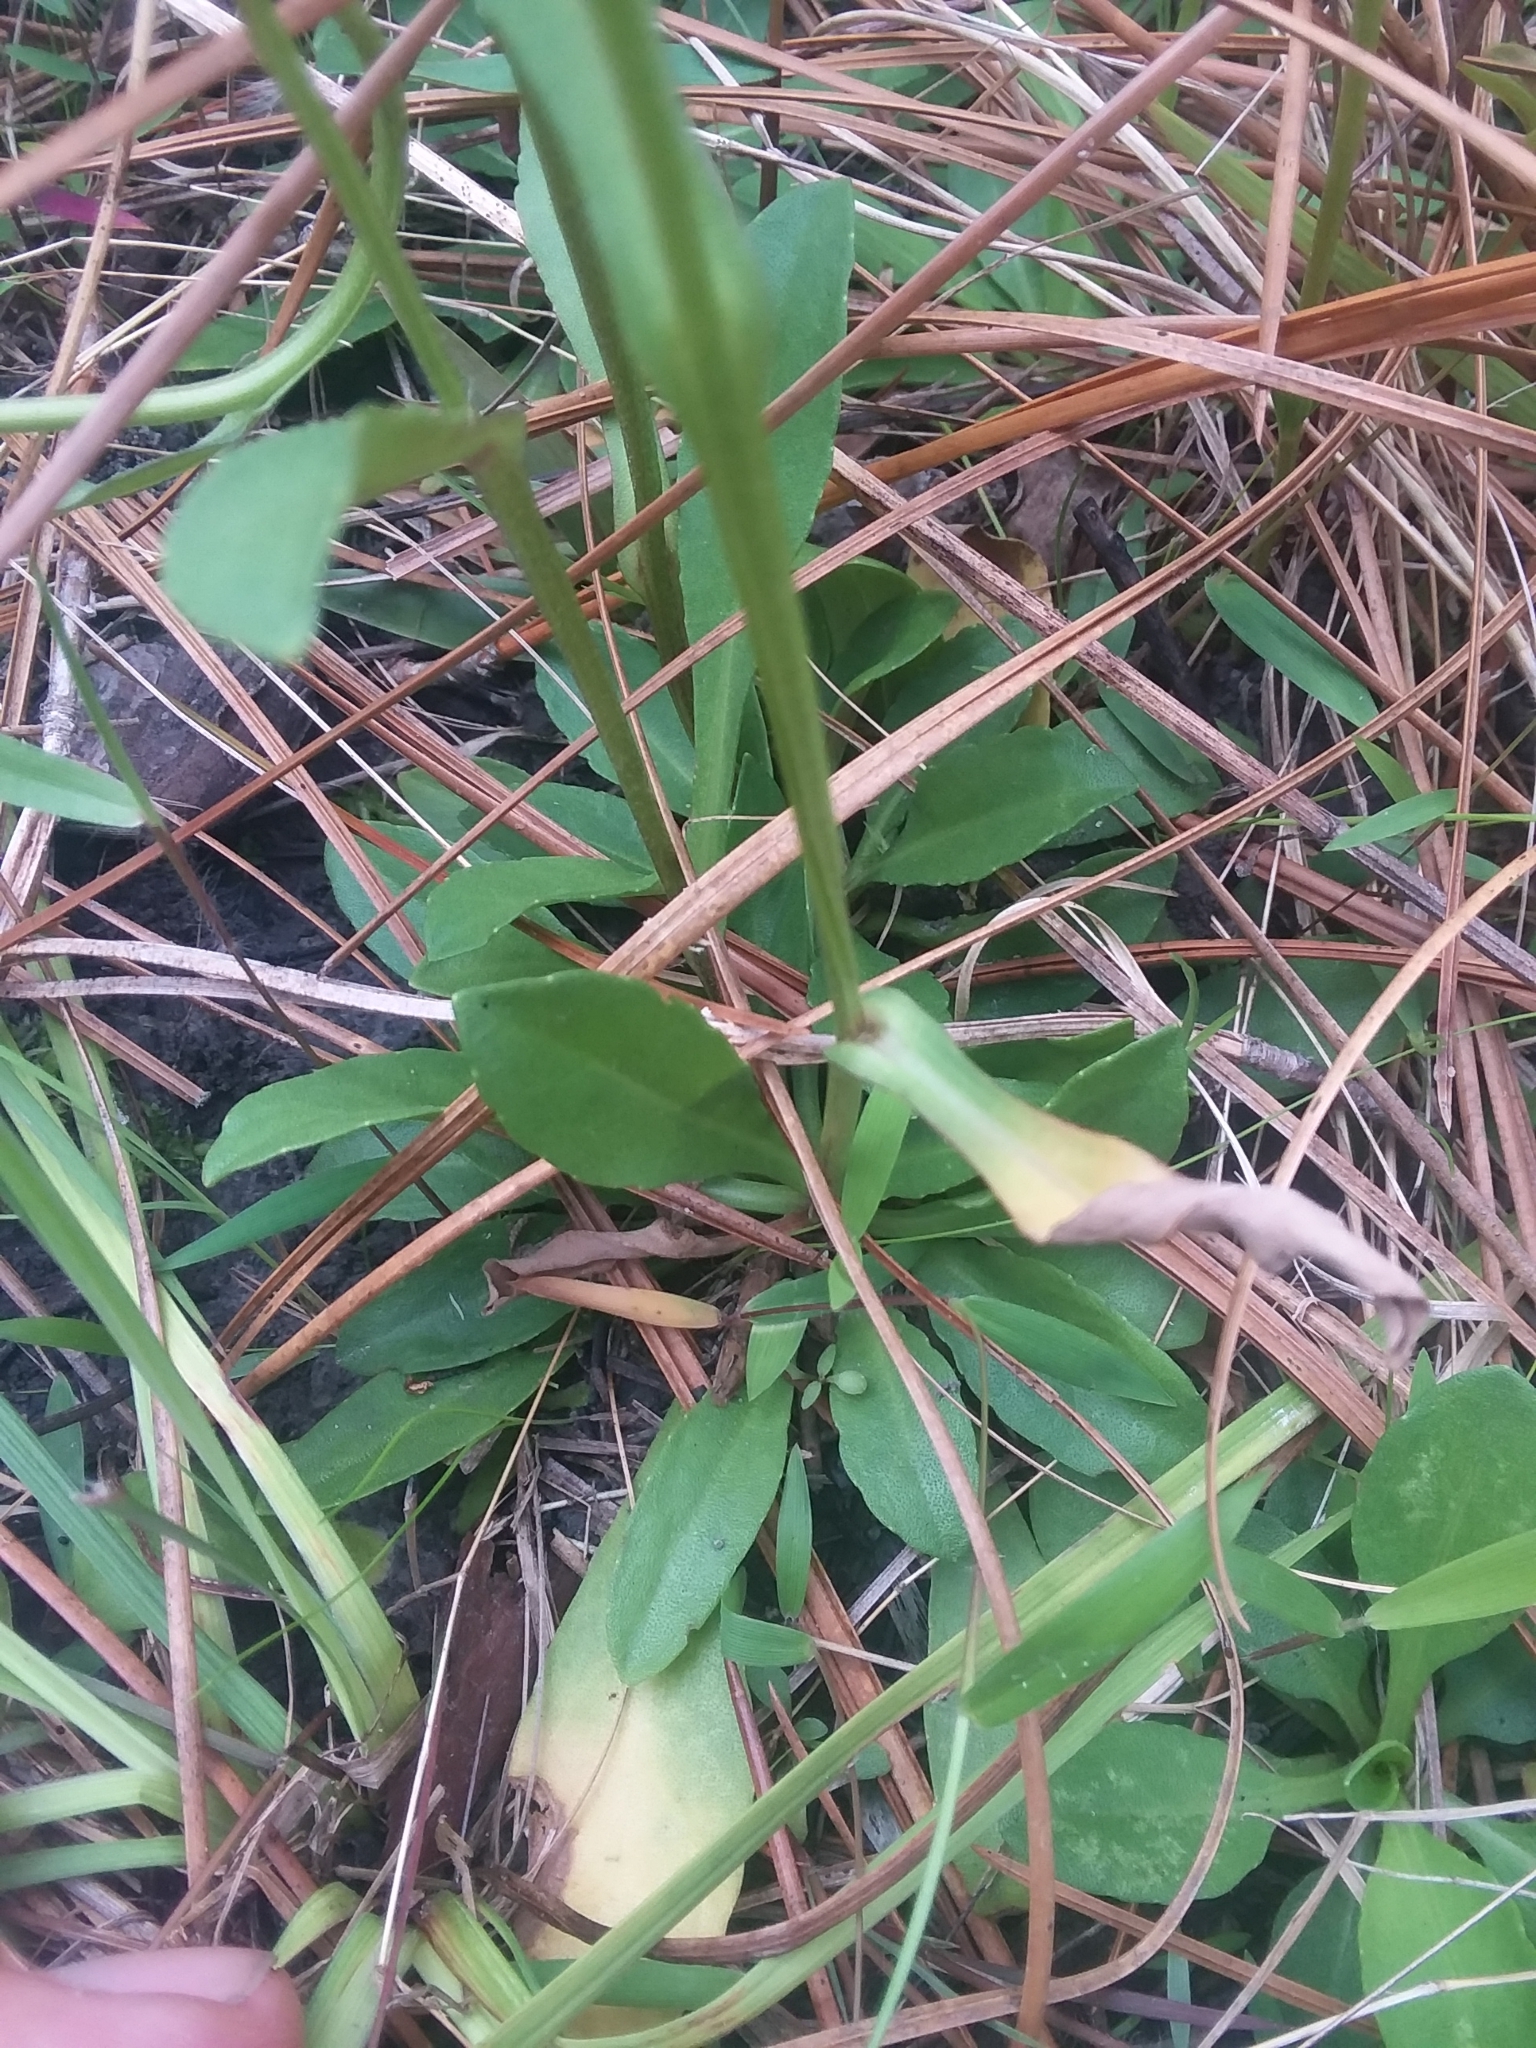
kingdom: Plantae
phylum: Tracheophyta
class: Magnoliopsida
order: Asterales
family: Asteraceae
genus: Helenium
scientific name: Helenium brevifolium
